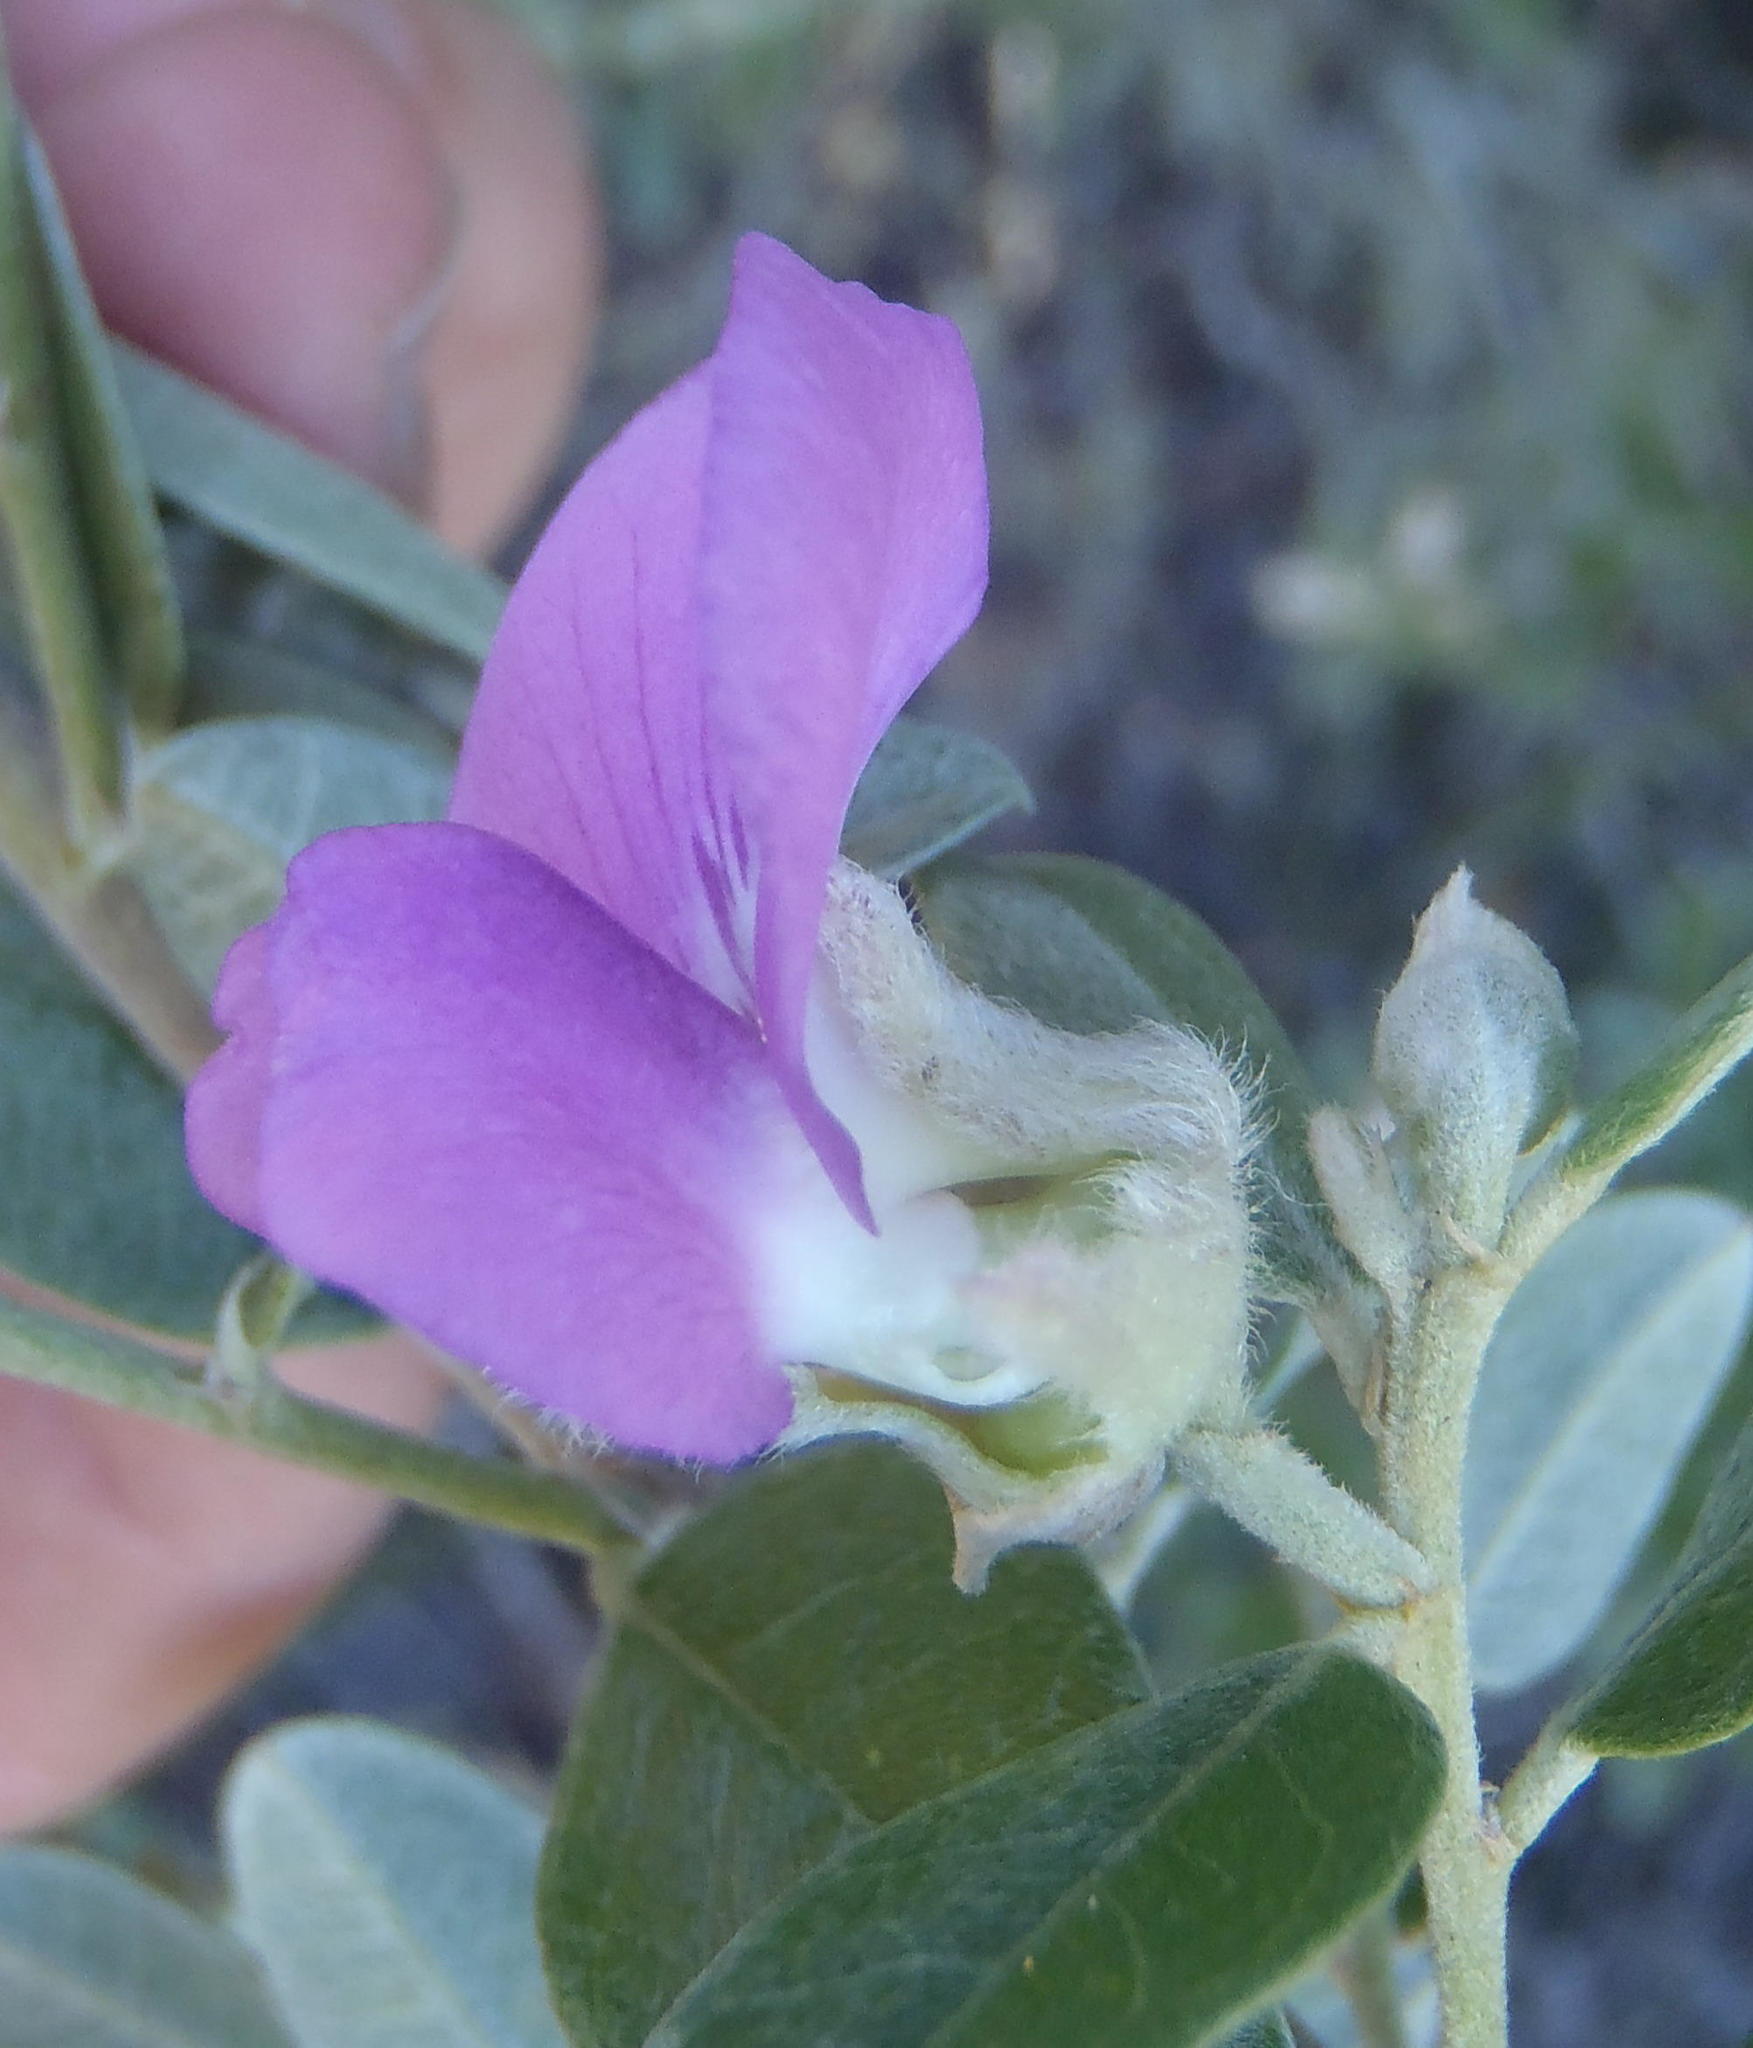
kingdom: Plantae
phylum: Tracheophyta
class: Magnoliopsida
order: Fabales
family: Fabaceae
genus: Podalyria
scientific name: Podalyria burchellii
